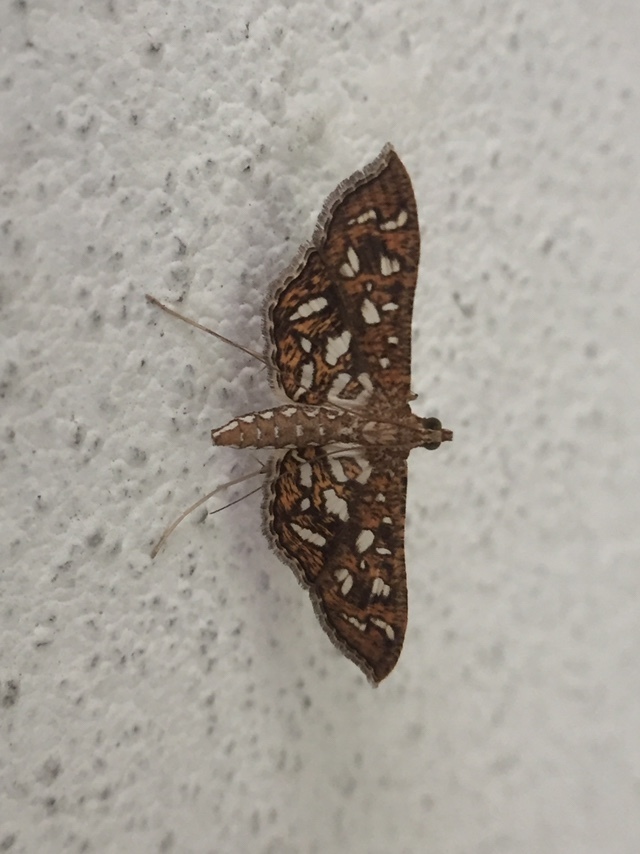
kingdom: Animalia
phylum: Arthropoda
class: Insecta
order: Lepidoptera
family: Crambidae
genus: Nausinoe
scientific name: Nausinoe geometralis
